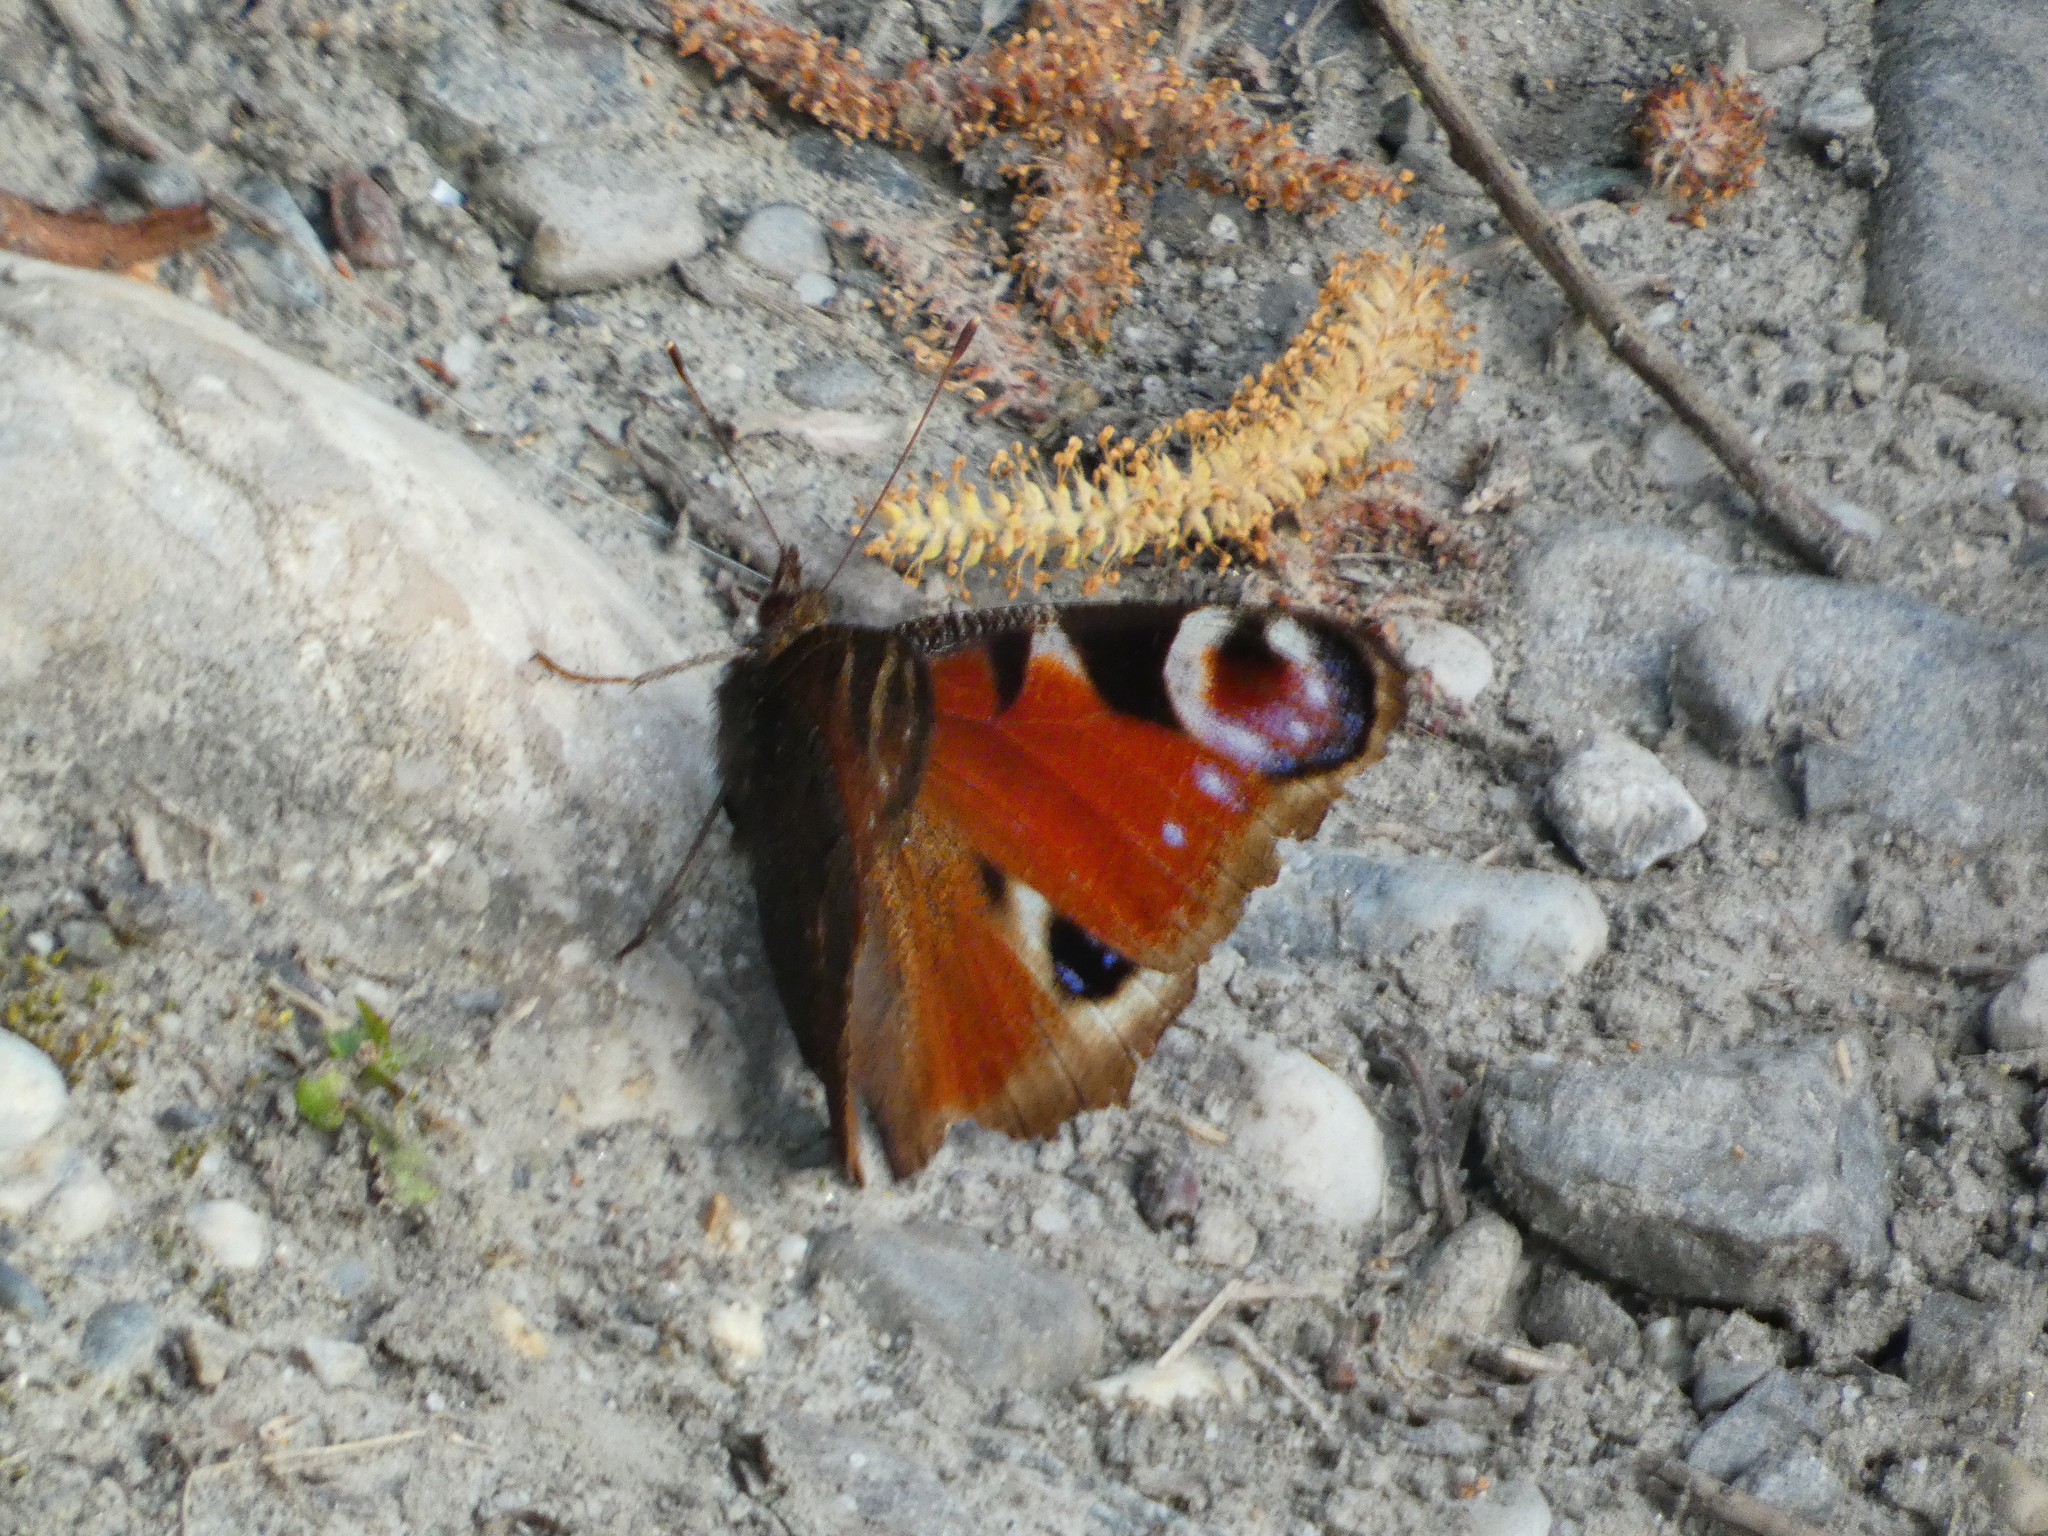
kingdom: Animalia
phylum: Arthropoda
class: Insecta
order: Lepidoptera
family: Nymphalidae
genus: Aglais
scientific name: Aglais io
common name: Peacock
